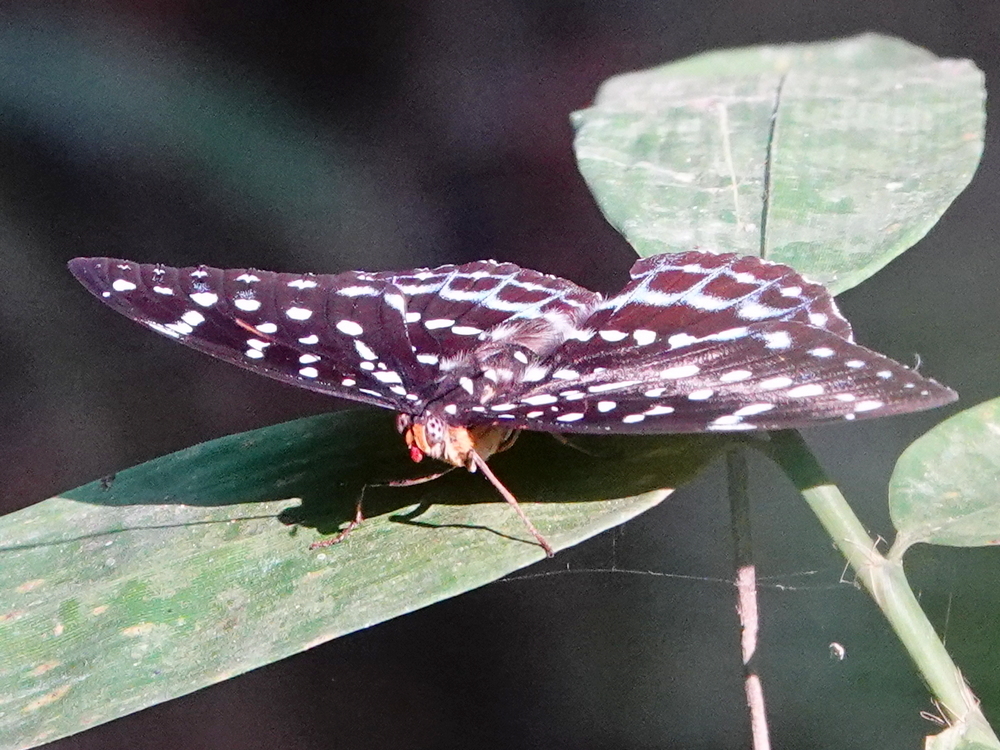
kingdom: Animalia
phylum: Arthropoda
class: Insecta
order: Lepidoptera
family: Nymphalidae
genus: Lexias
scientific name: Lexias
